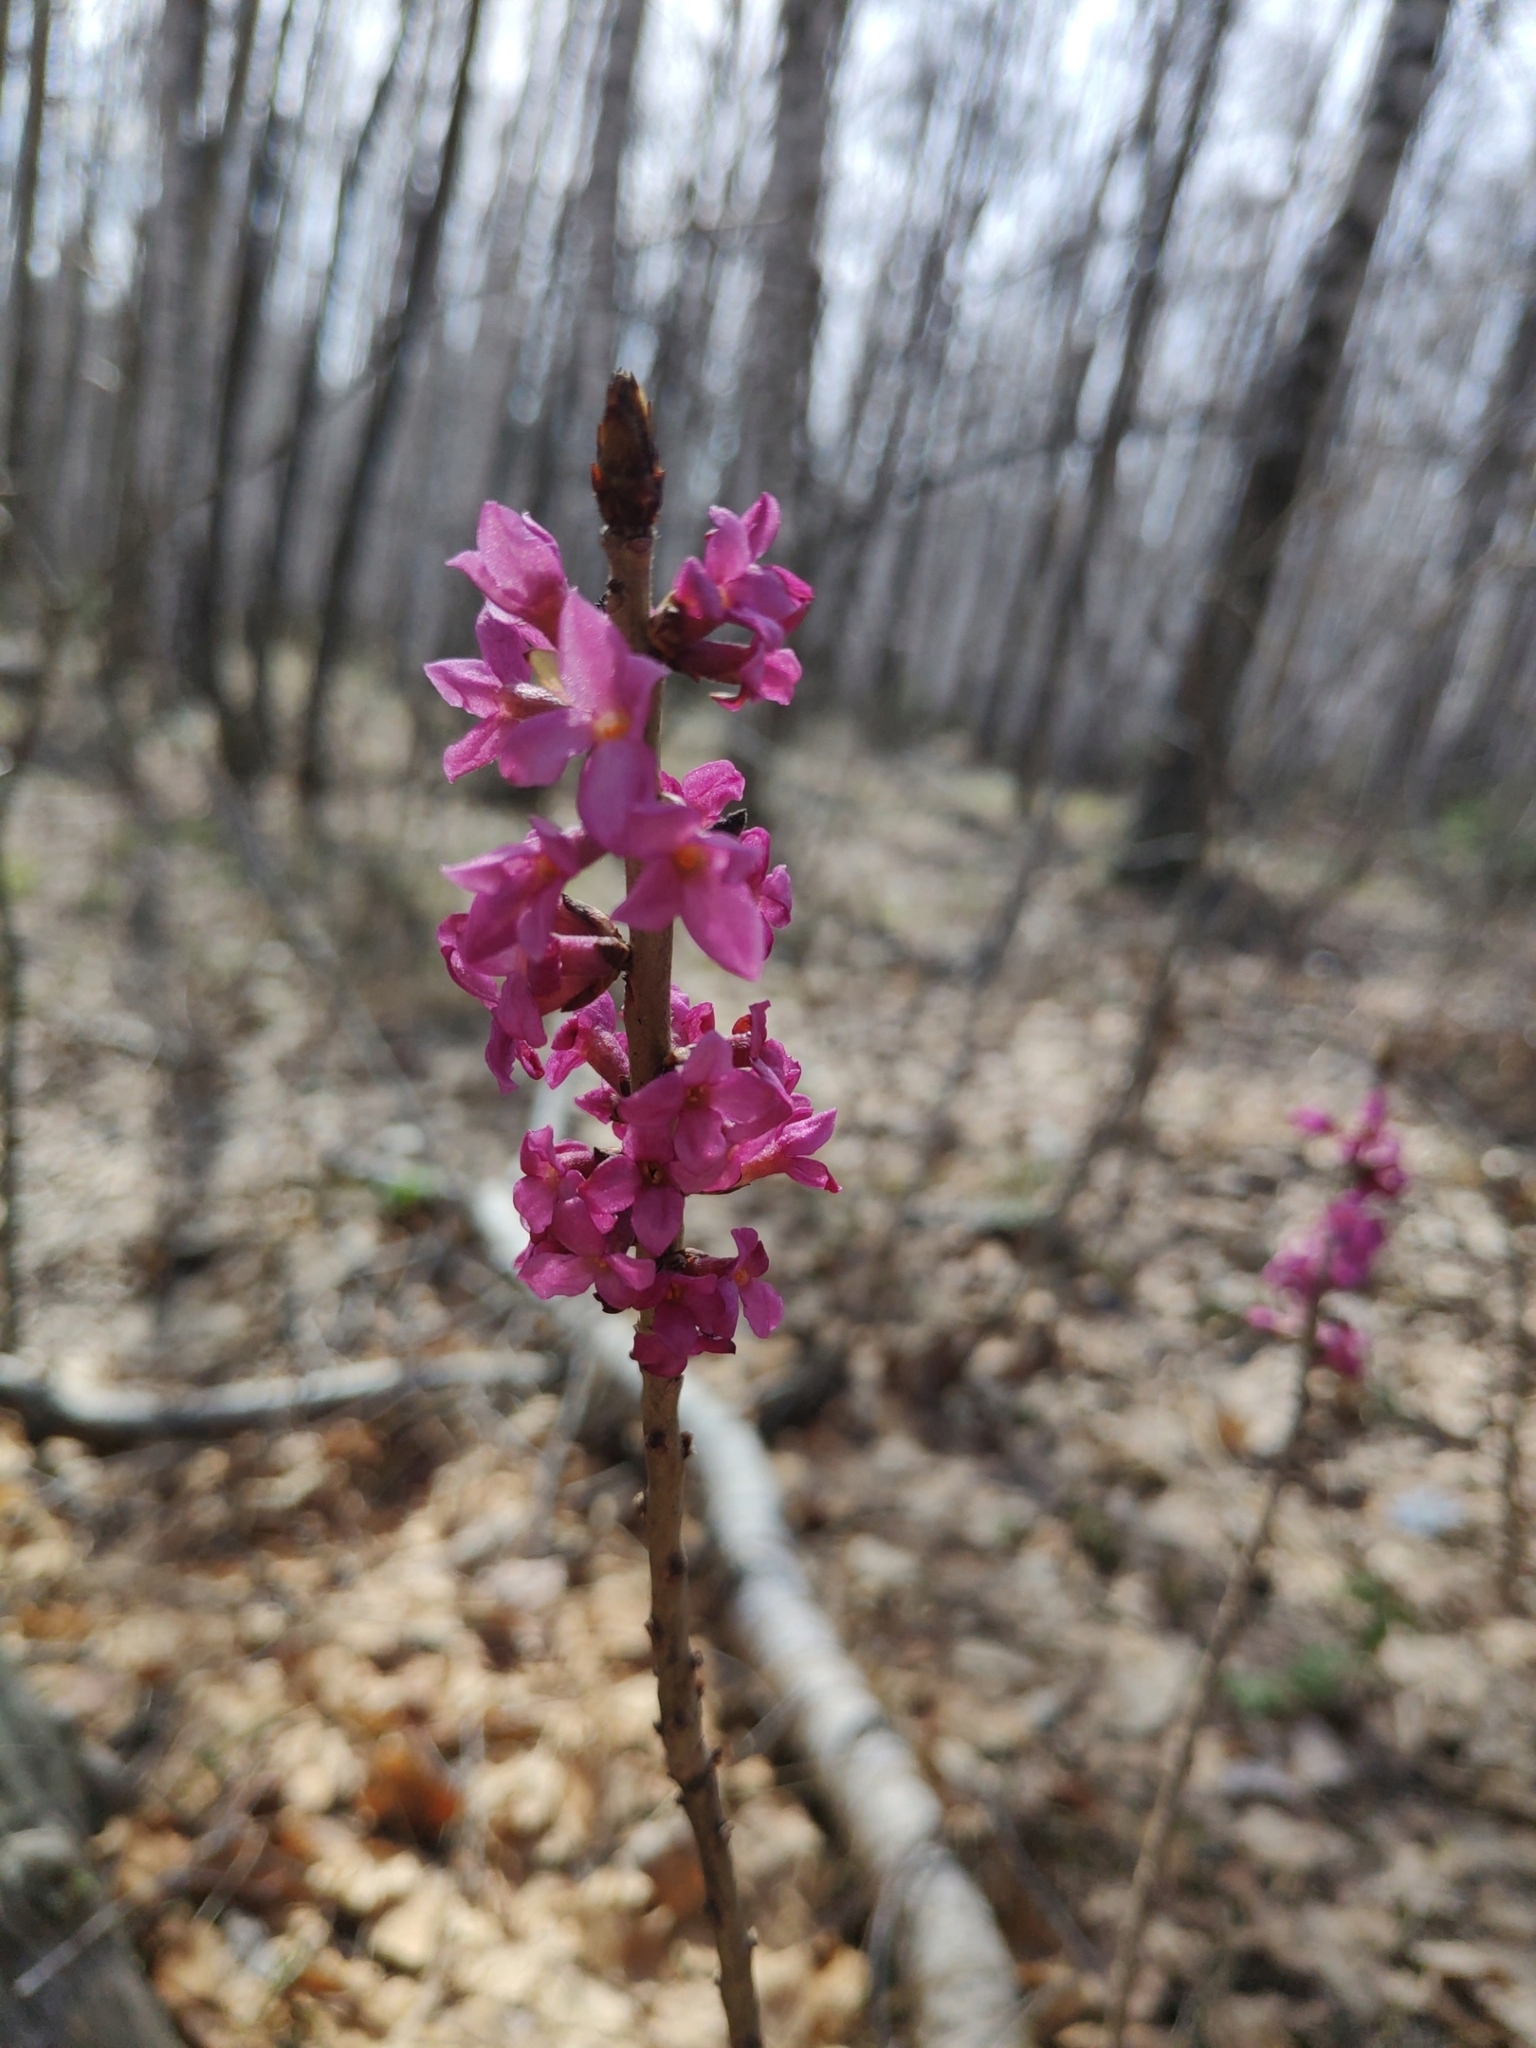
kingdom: Plantae
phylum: Tracheophyta
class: Magnoliopsida
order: Malvales
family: Thymelaeaceae
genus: Daphne
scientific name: Daphne mezereum
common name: Mezereon
